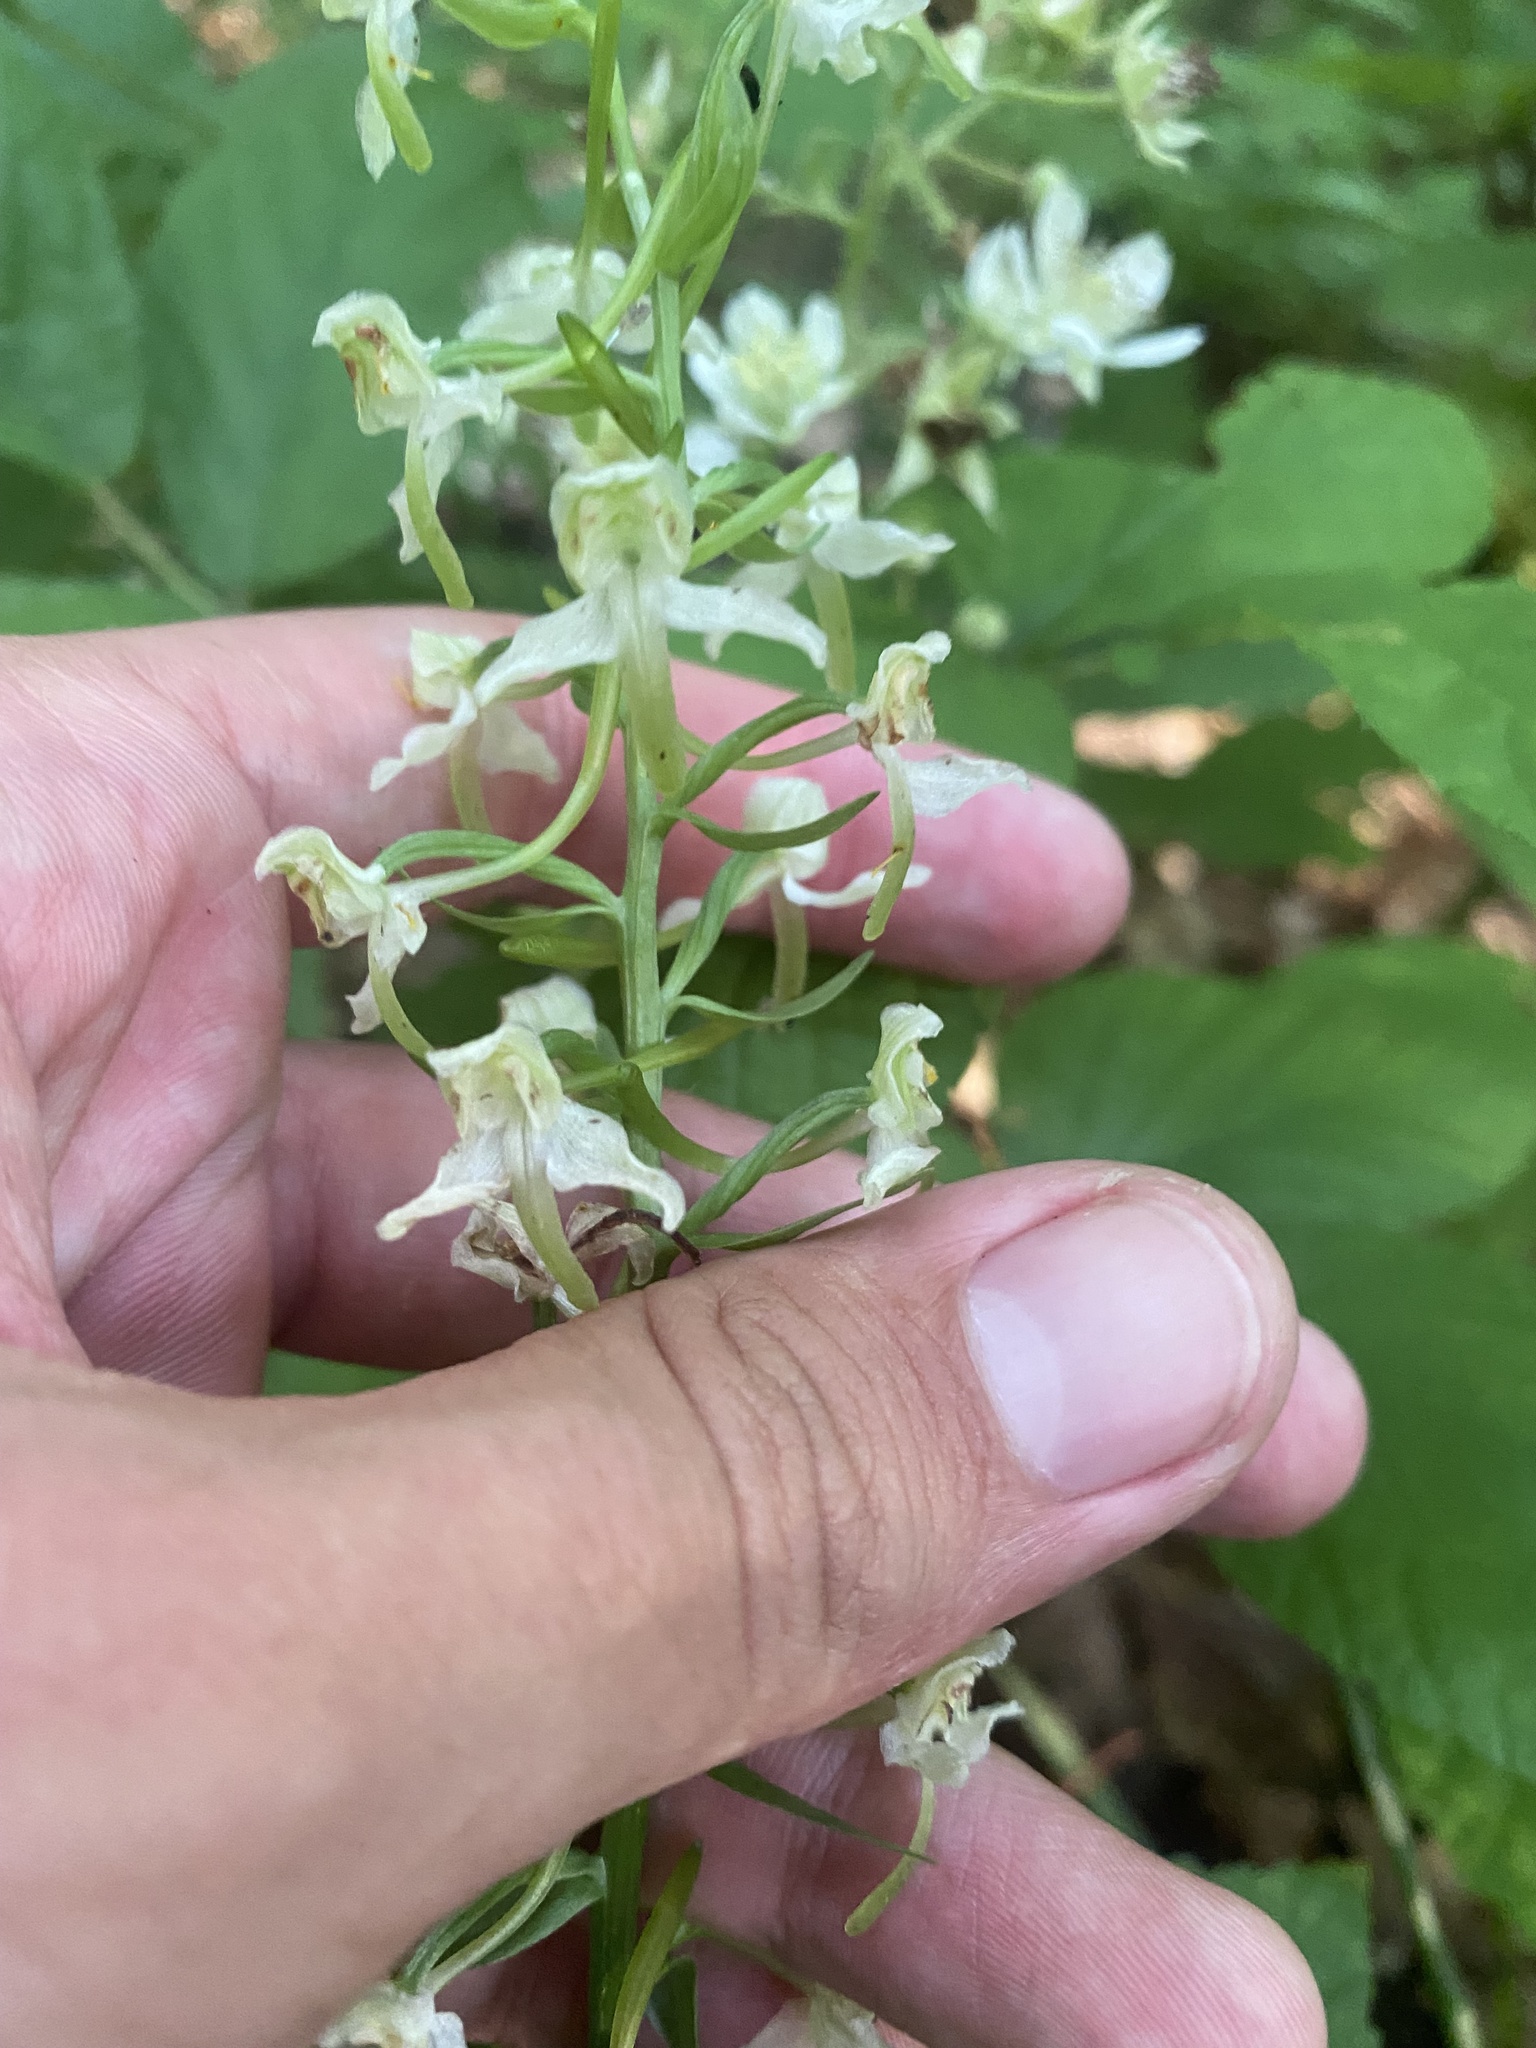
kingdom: Plantae
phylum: Tracheophyta
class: Liliopsida
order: Asparagales
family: Orchidaceae
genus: Platanthera
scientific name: Platanthera chlorantha
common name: Greater butterfly-orchid
